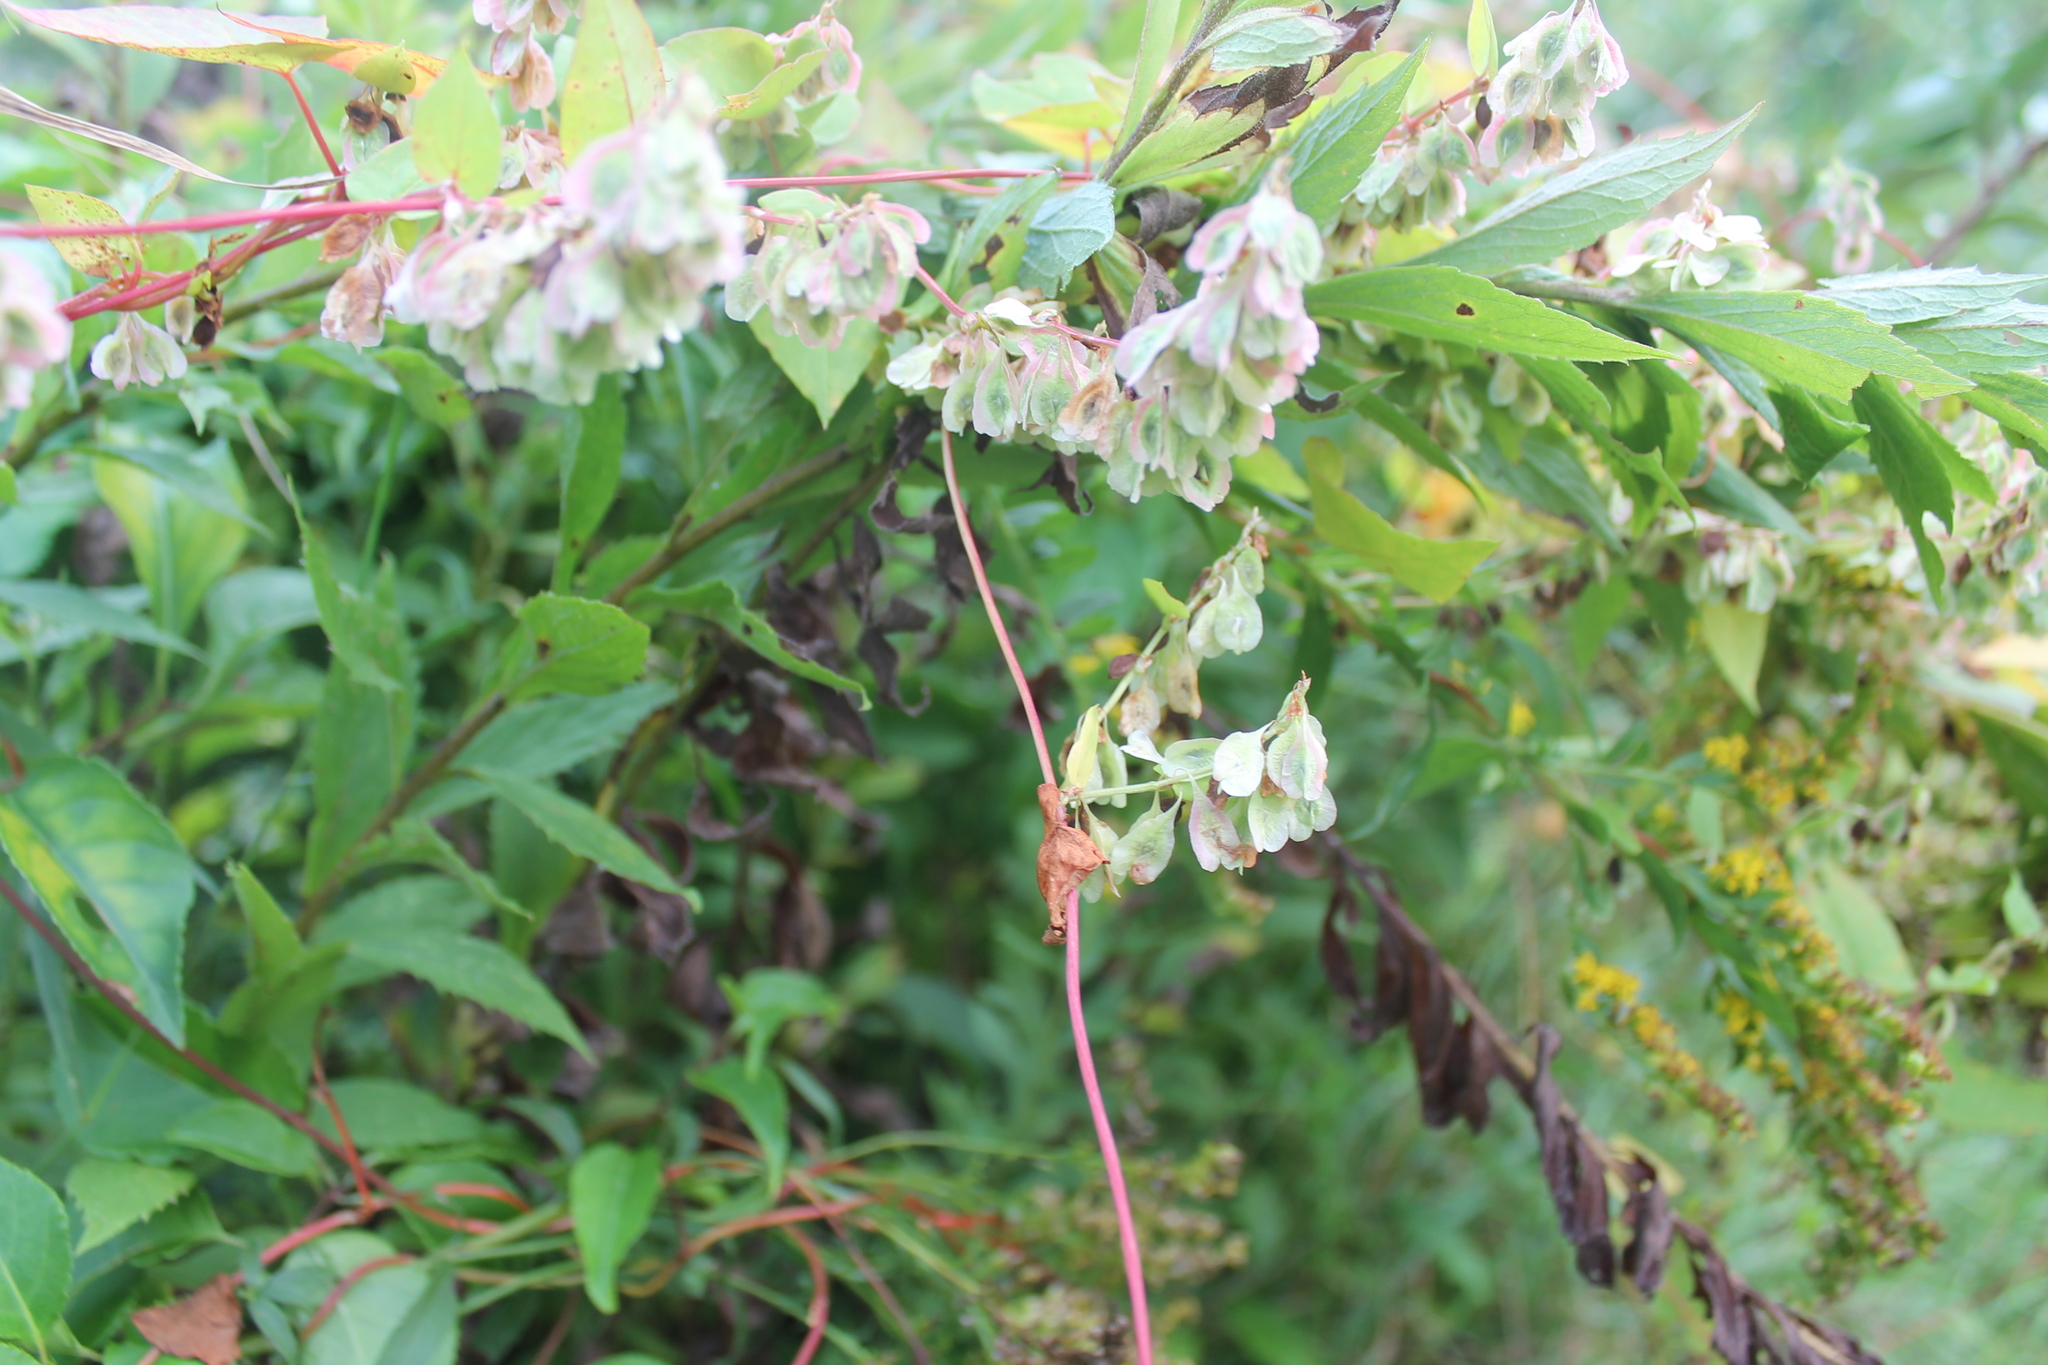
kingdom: Plantae
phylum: Tracheophyta
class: Magnoliopsida
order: Caryophyllales
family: Polygonaceae
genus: Fallopia
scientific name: Fallopia scandens
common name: Climbing false buckwheat
